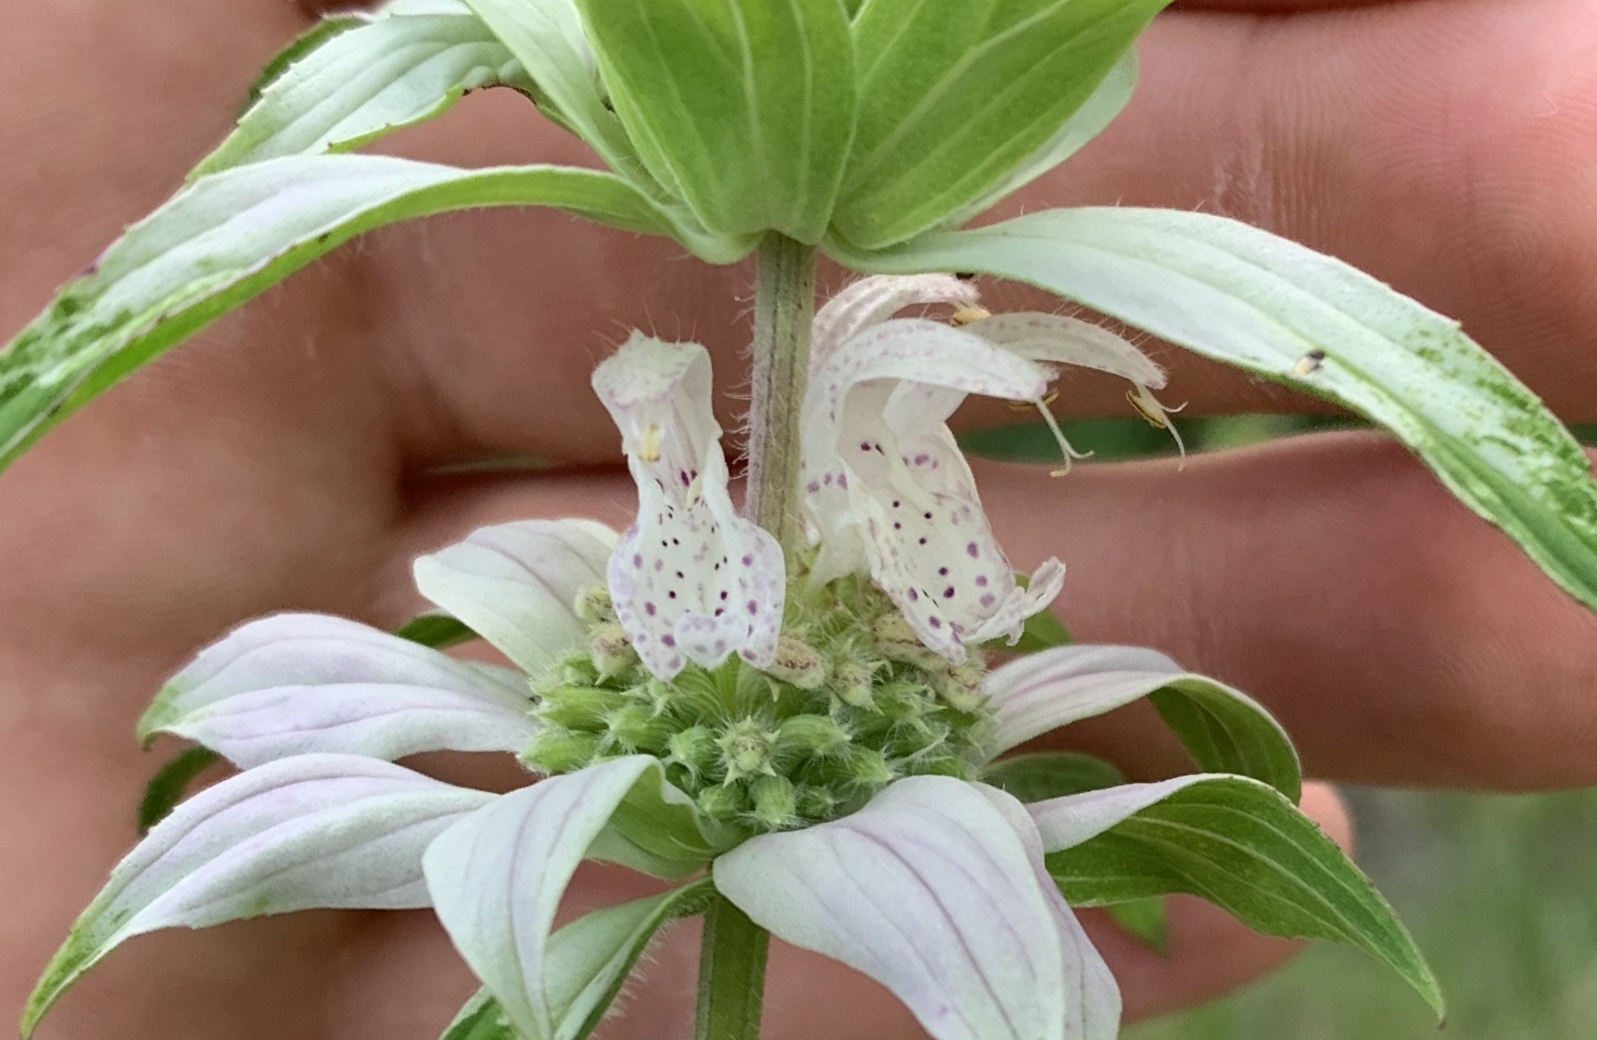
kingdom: Plantae
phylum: Tracheophyta
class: Magnoliopsida
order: Lamiales
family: Lamiaceae
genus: Monarda
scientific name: Monarda punctata
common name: Dotted monarda
